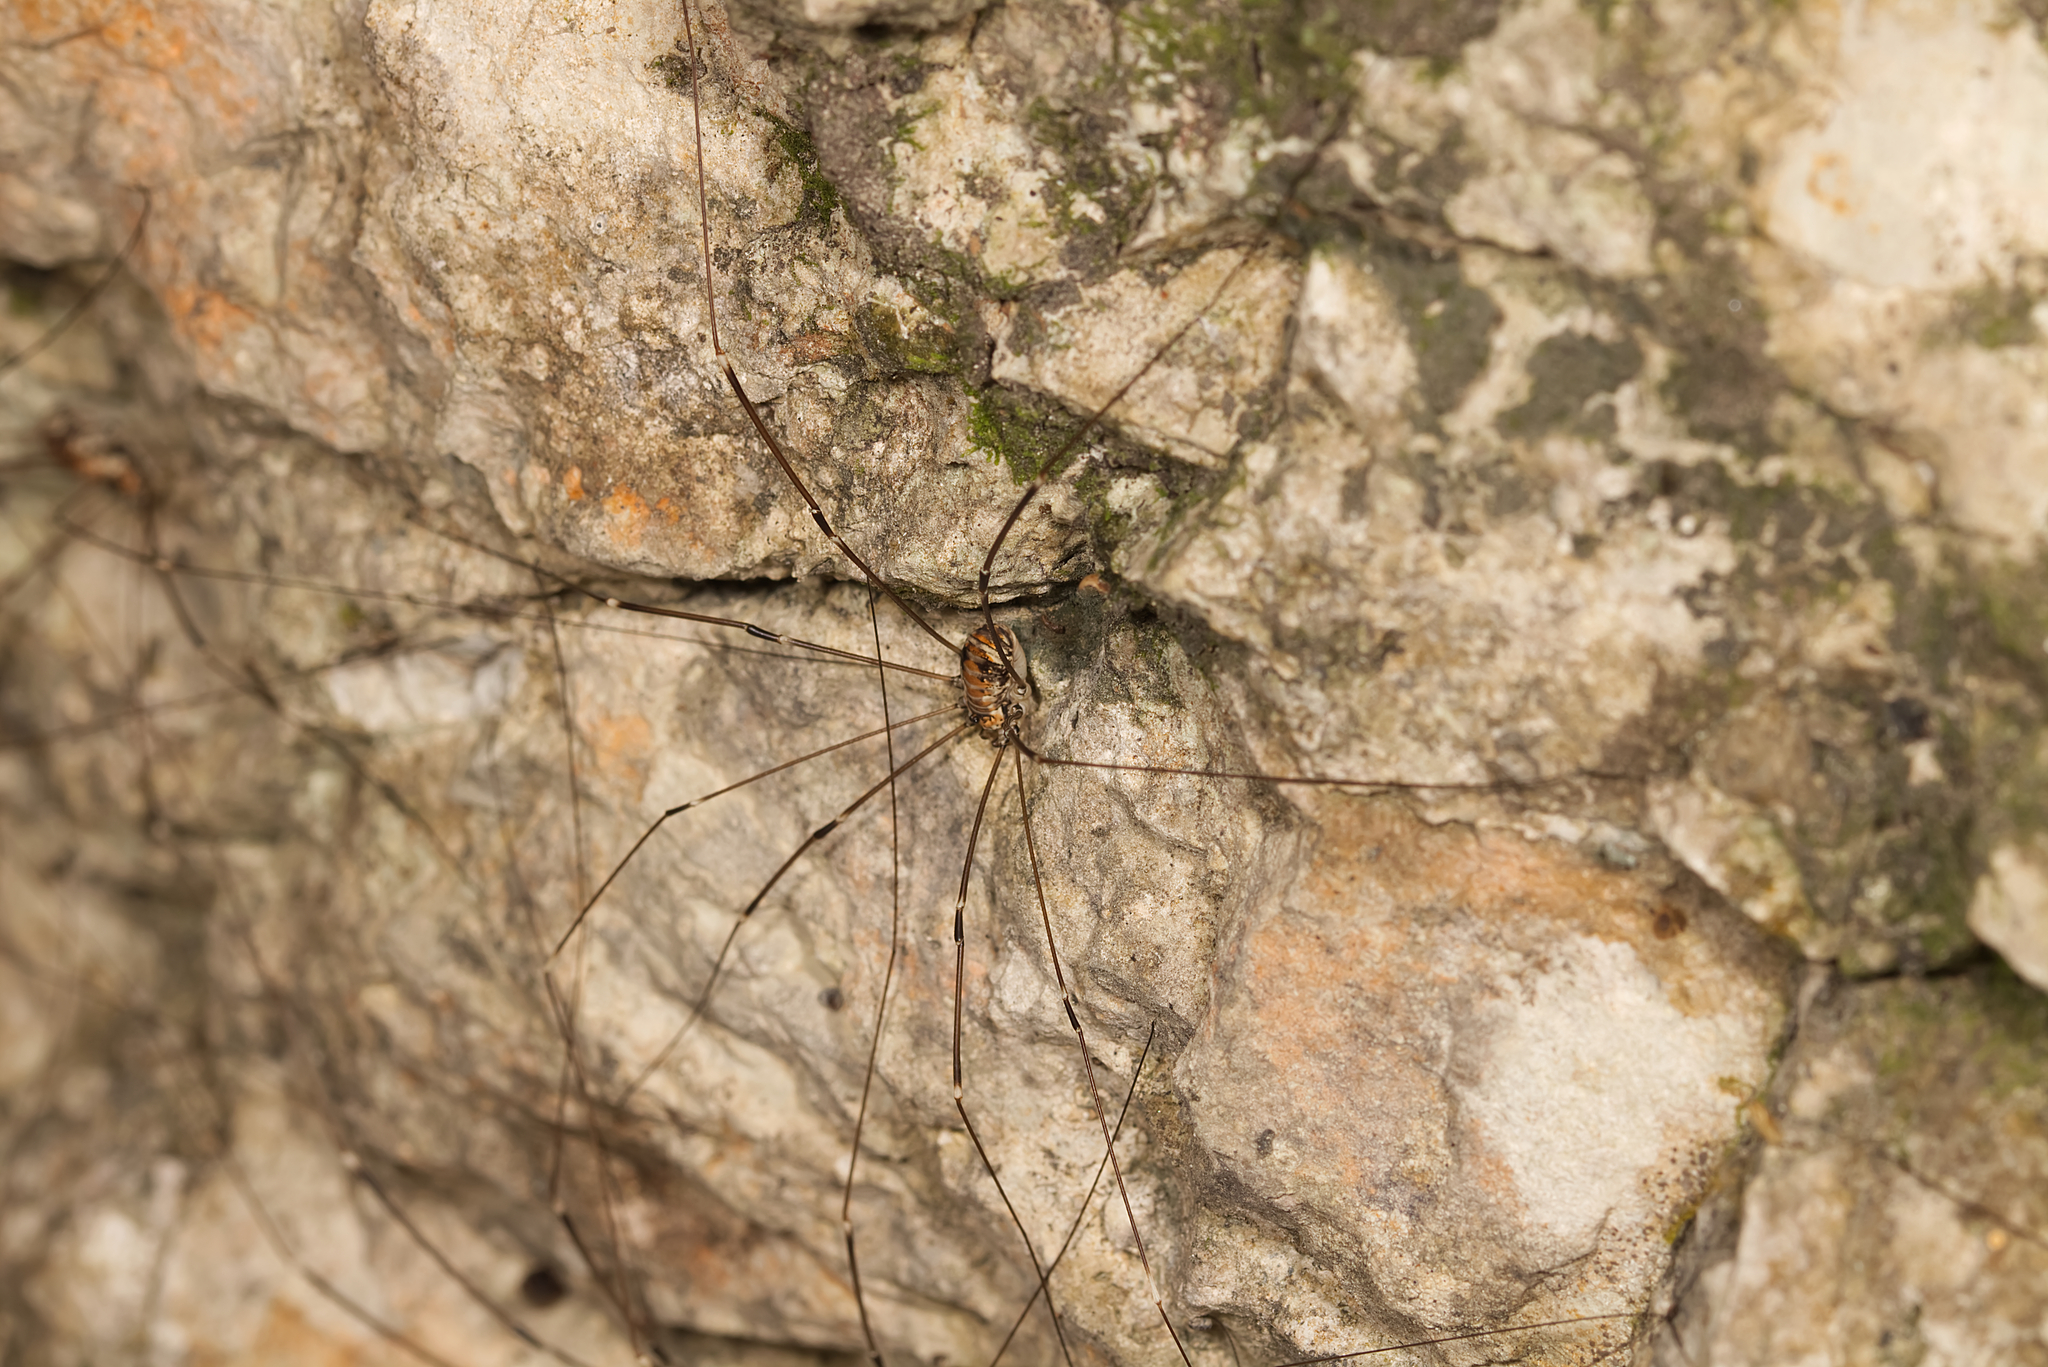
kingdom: Animalia
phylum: Arthropoda
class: Arachnida
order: Opiliones
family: Sclerosomatidae
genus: Leiobunum
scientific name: Leiobunum limbatum
